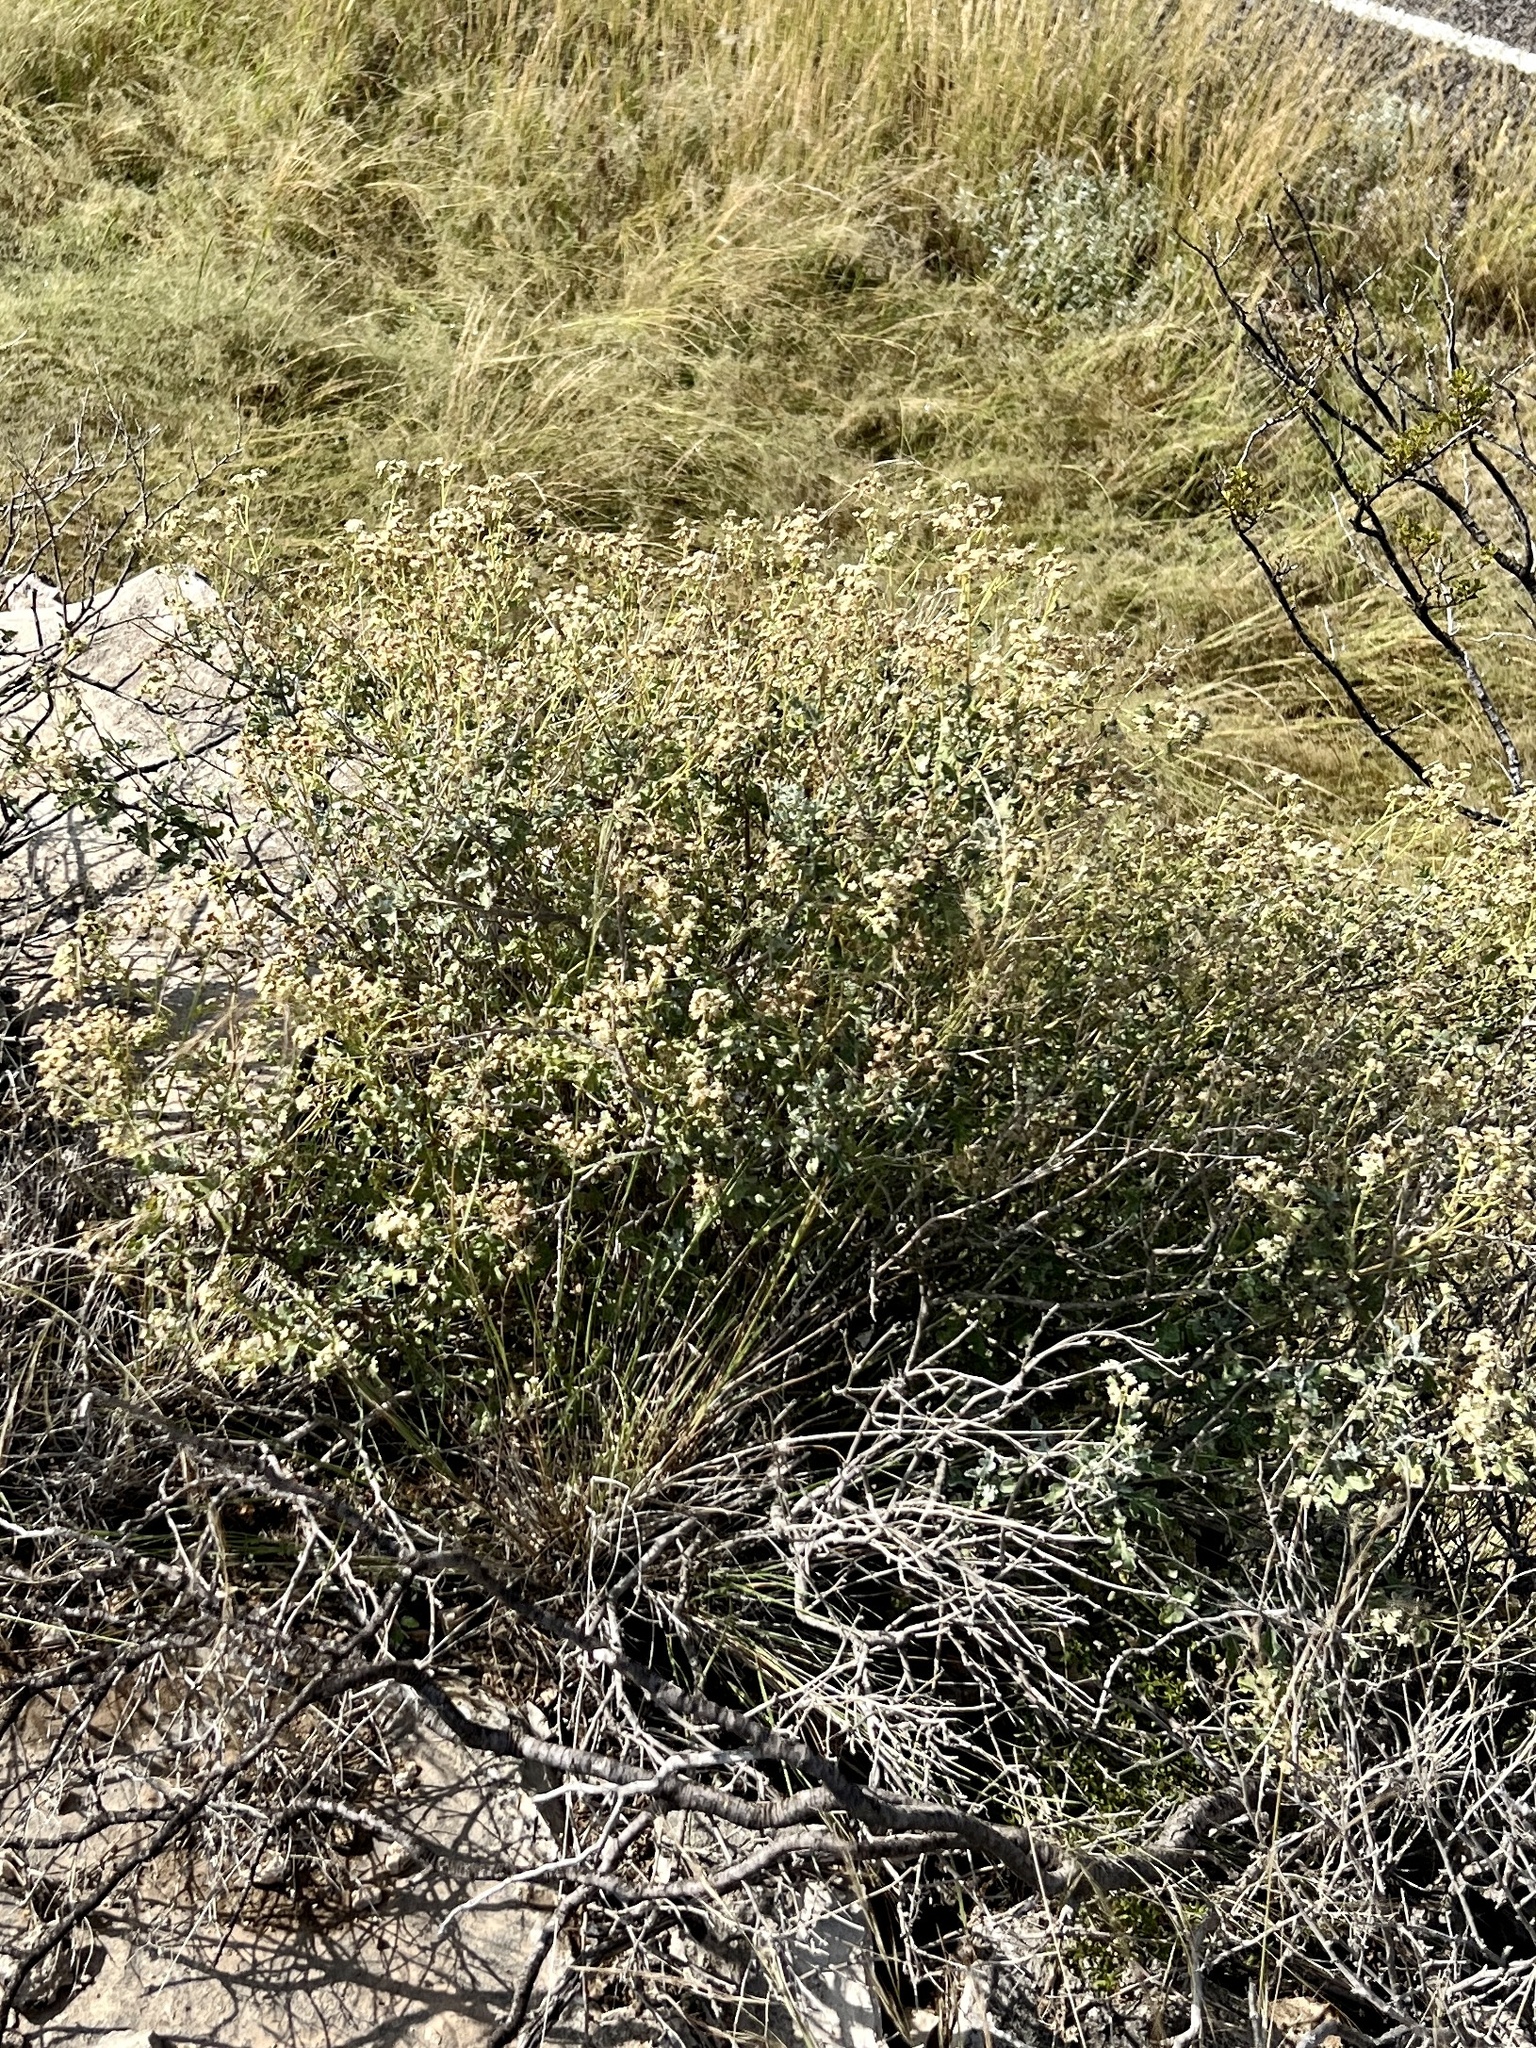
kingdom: Plantae
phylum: Tracheophyta
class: Magnoliopsida
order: Asterales
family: Asteraceae
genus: Parthenium
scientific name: Parthenium incanum
